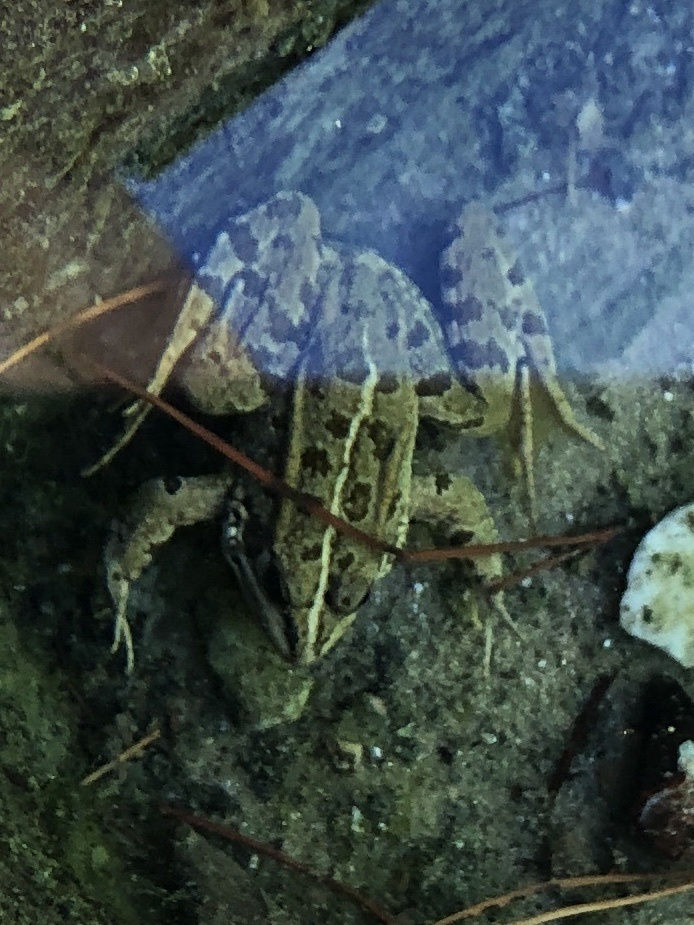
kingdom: Animalia
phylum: Chordata
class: Amphibia
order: Anura
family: Ranidae
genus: Pelophylax
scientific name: Pelophylax perezi
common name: Perez's frog
